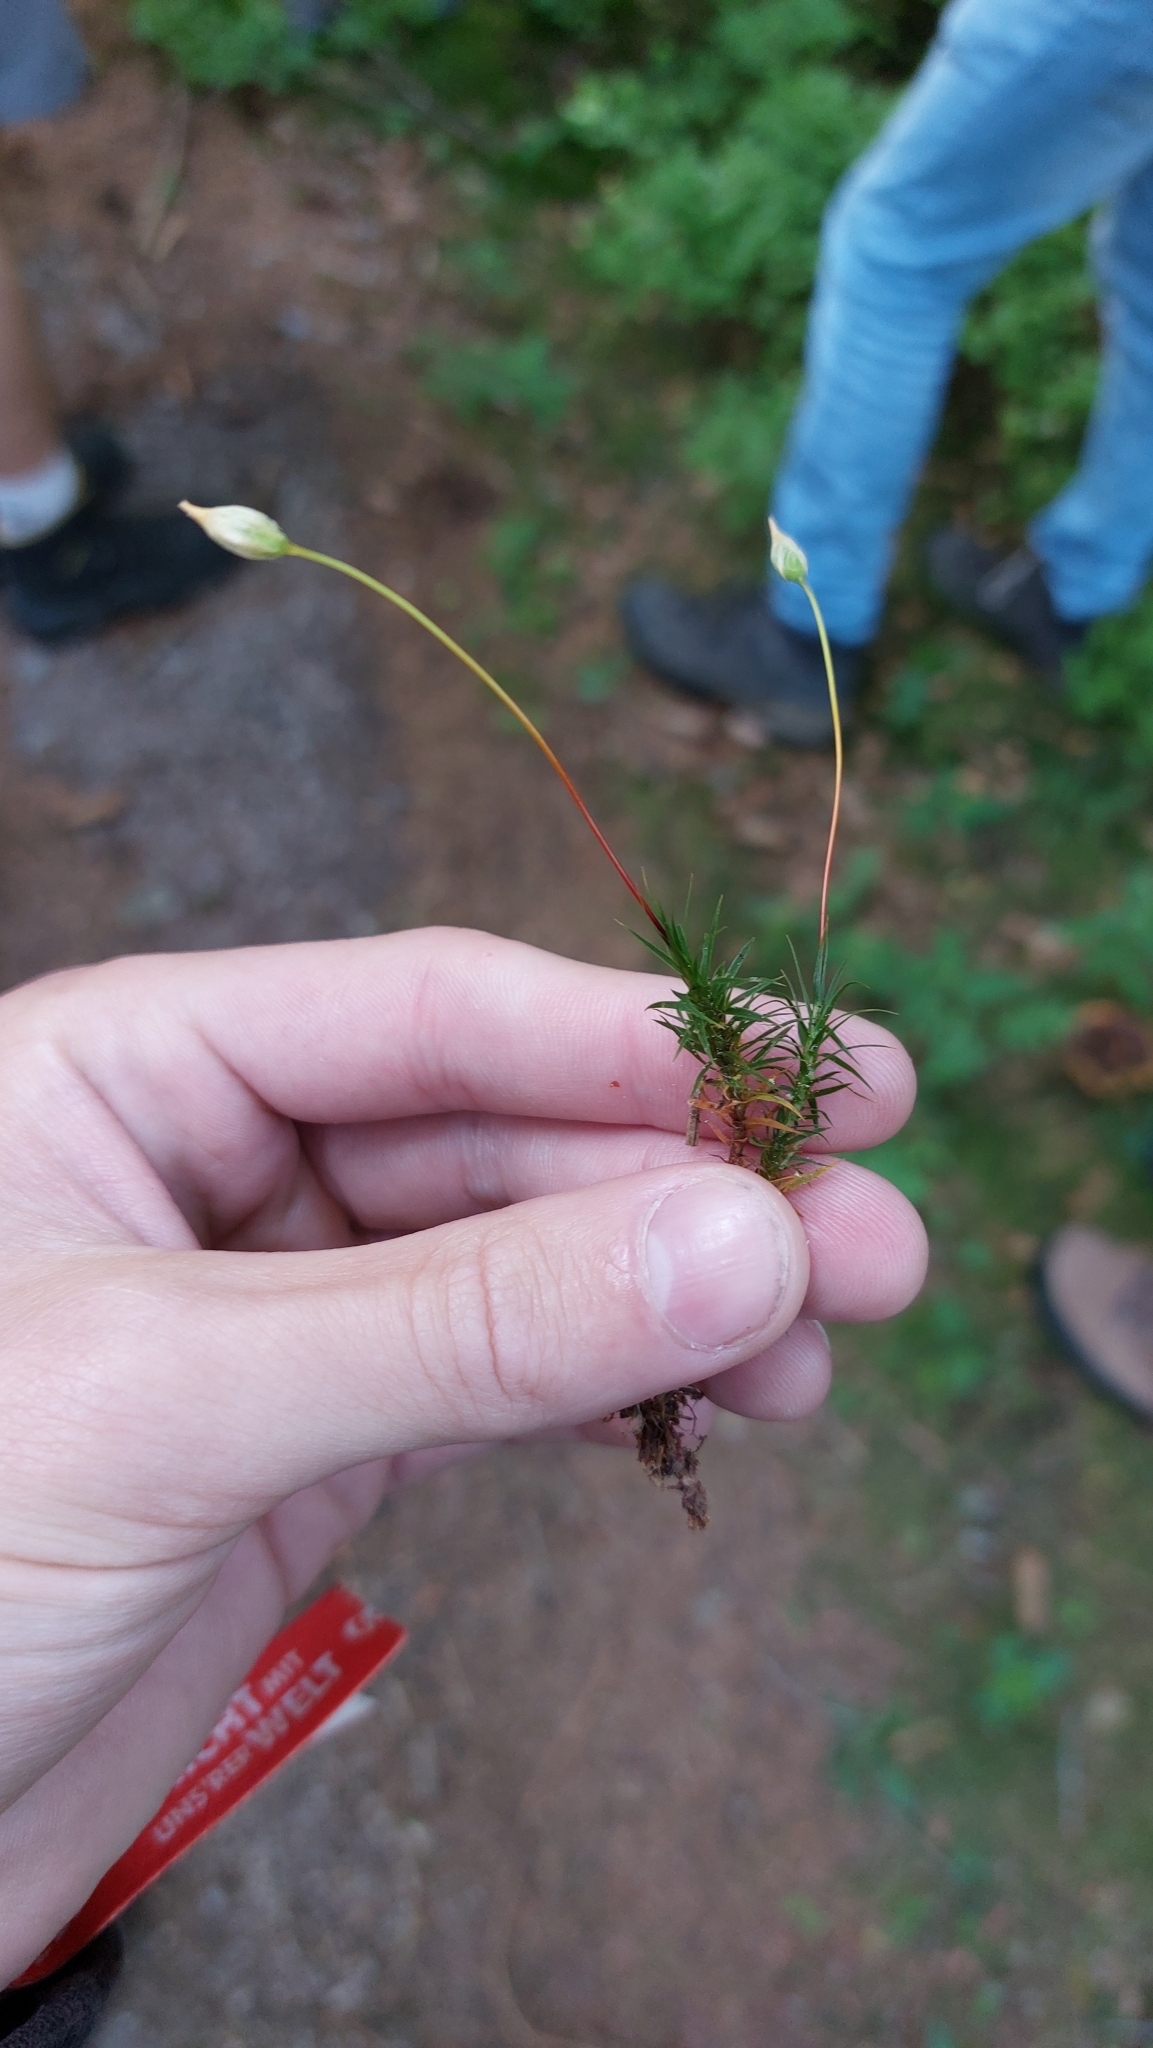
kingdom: Plantae
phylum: Bryophyta
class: Polytrichopsida
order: Polytrichales
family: Polytrichaceae
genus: Polytrichum
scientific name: Polytrichum formosum
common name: Bank haircap moss
